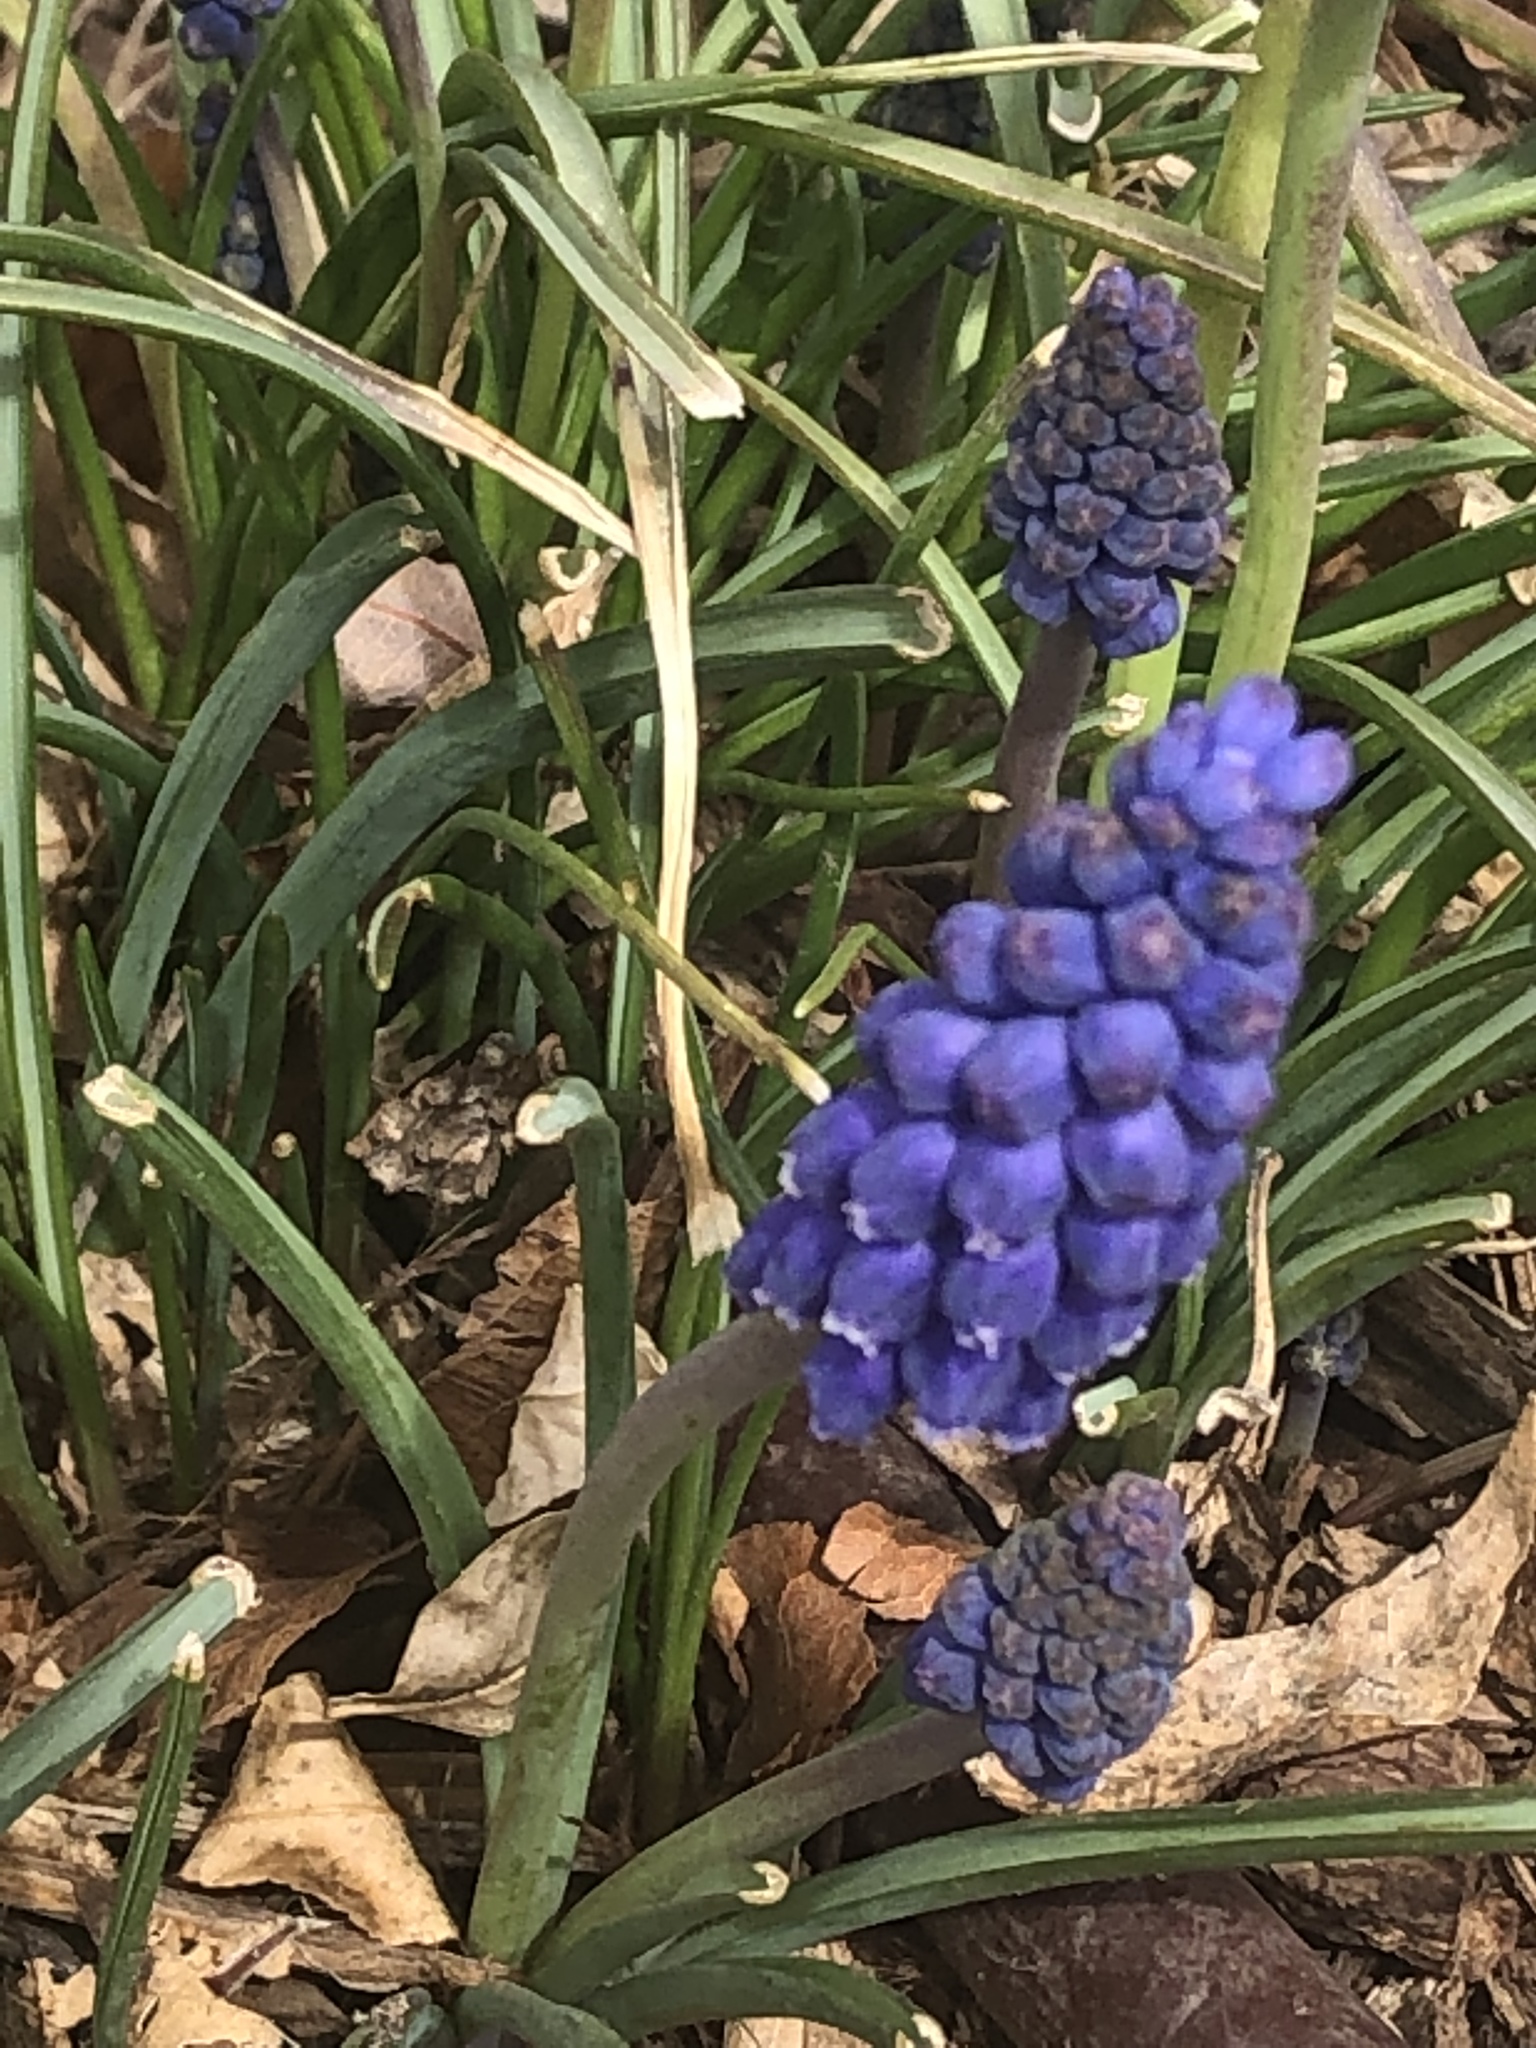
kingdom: Plantae
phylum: Tracheophyta
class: Liliopsida
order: Asparagales
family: Asparagaceae
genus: Muscari
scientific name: Muscari armeniacum
